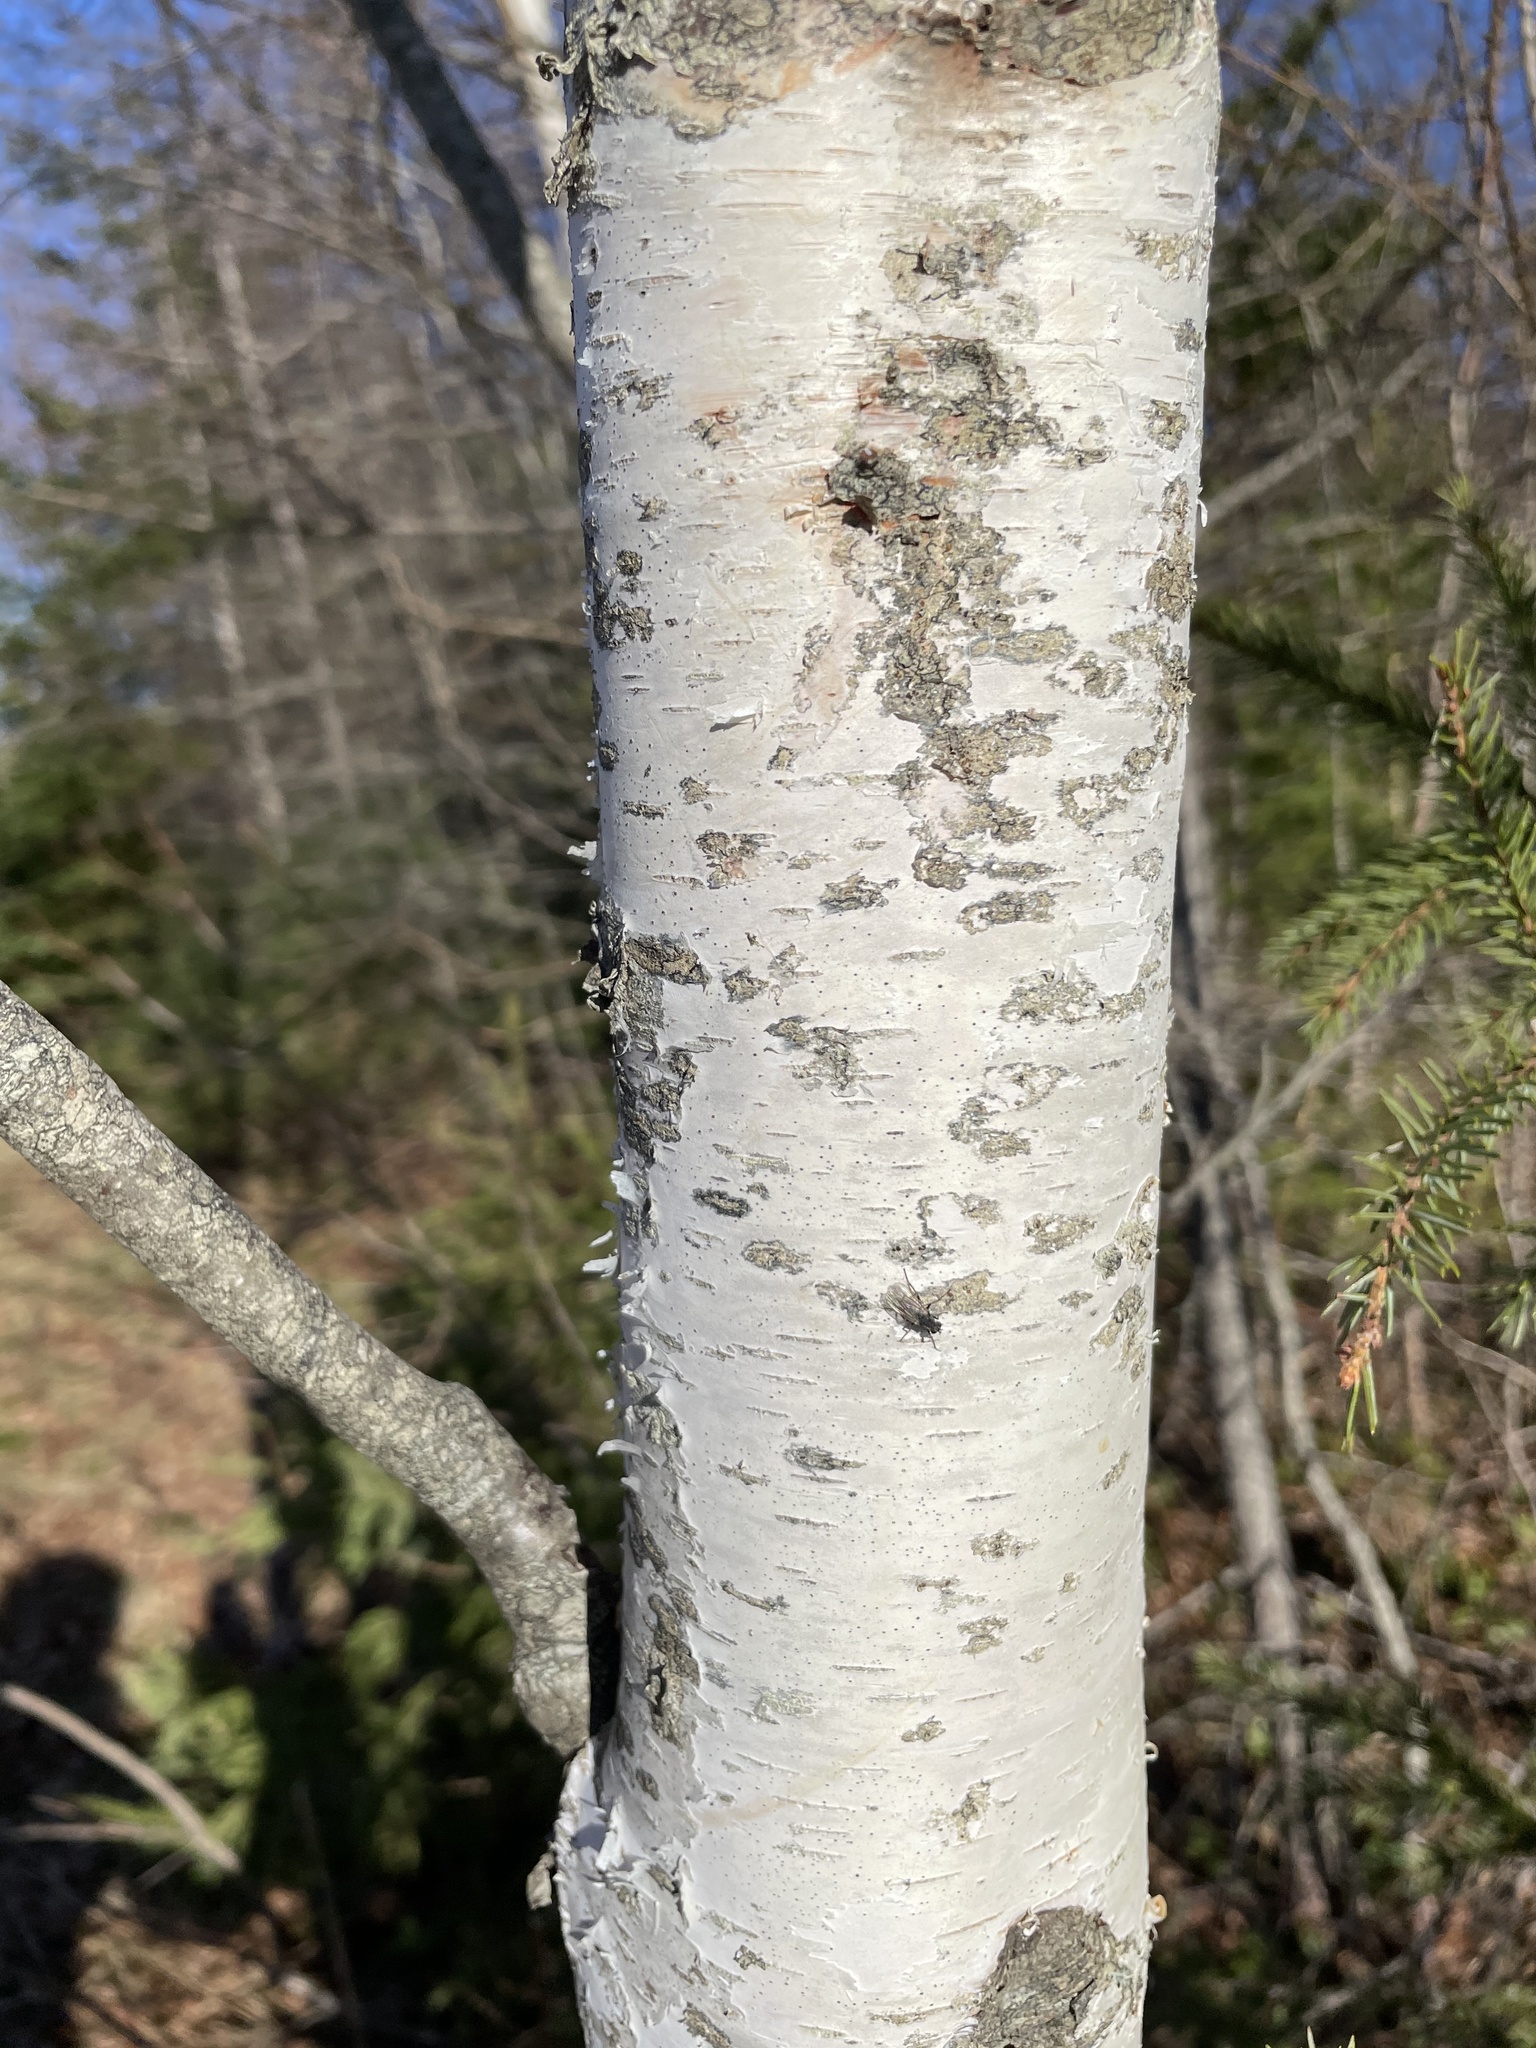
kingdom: Plantae
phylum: Tracheophyta
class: Magnoliopsida
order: Fagales
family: Betulaceae
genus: Betula
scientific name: Betula papyrifera
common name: Paper birch
